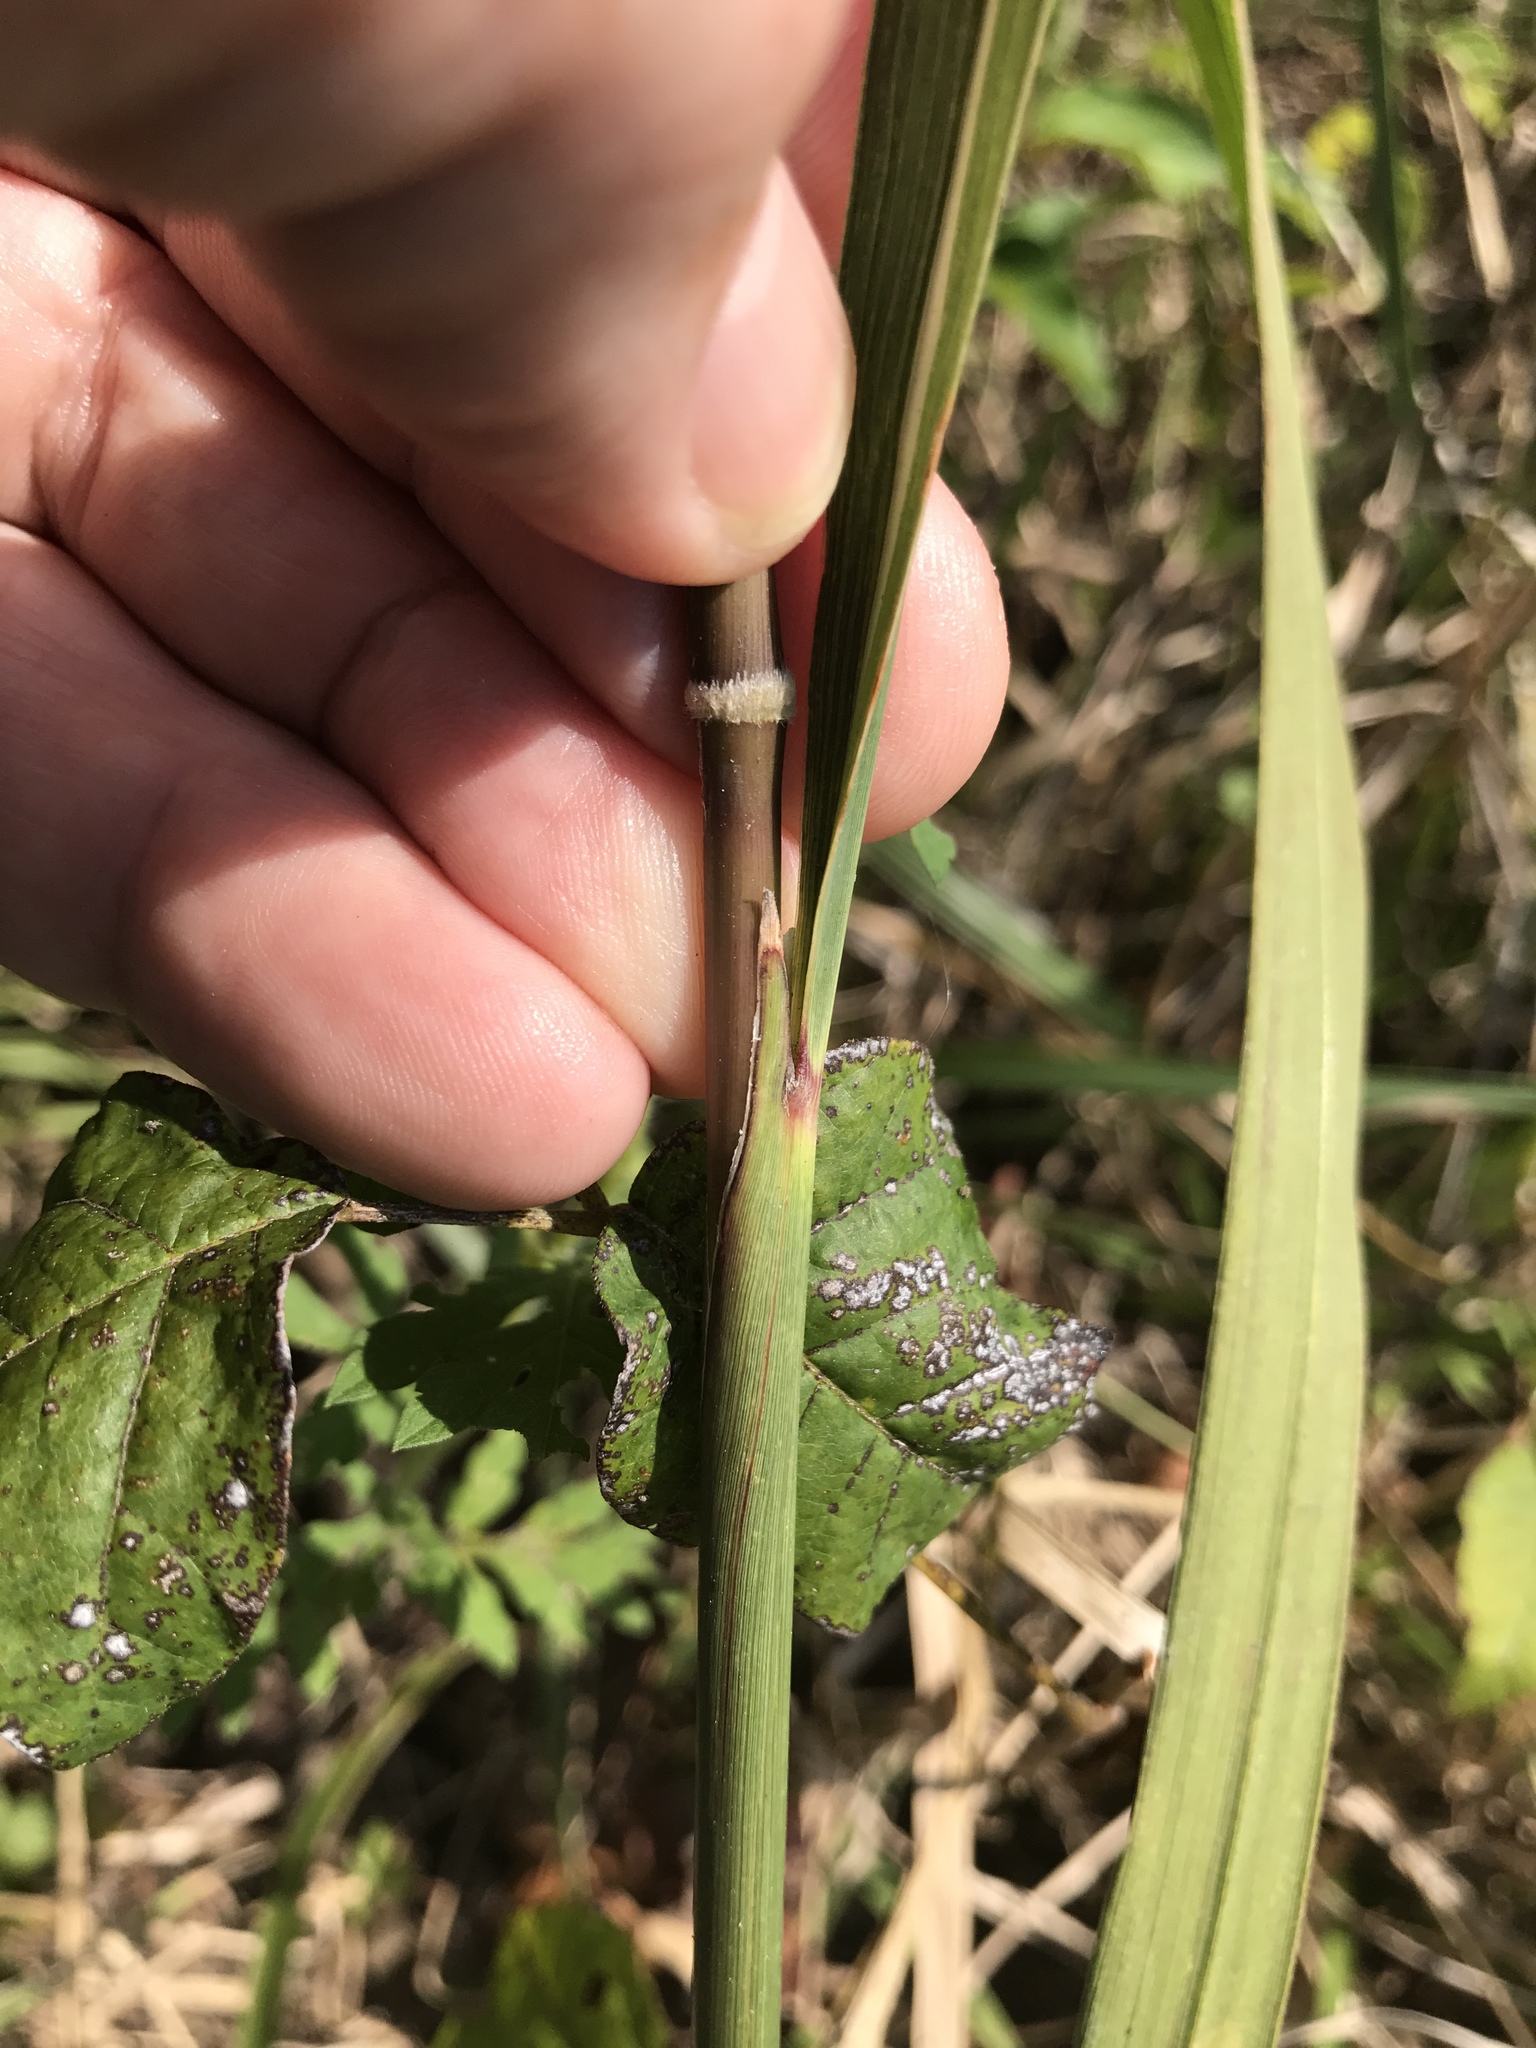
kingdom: Plantae
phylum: Tracheophyta
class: Liliopsida
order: Poales
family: Poaceae
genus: Sorghastrum
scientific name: Sorghastrum nutans
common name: Indian grass
